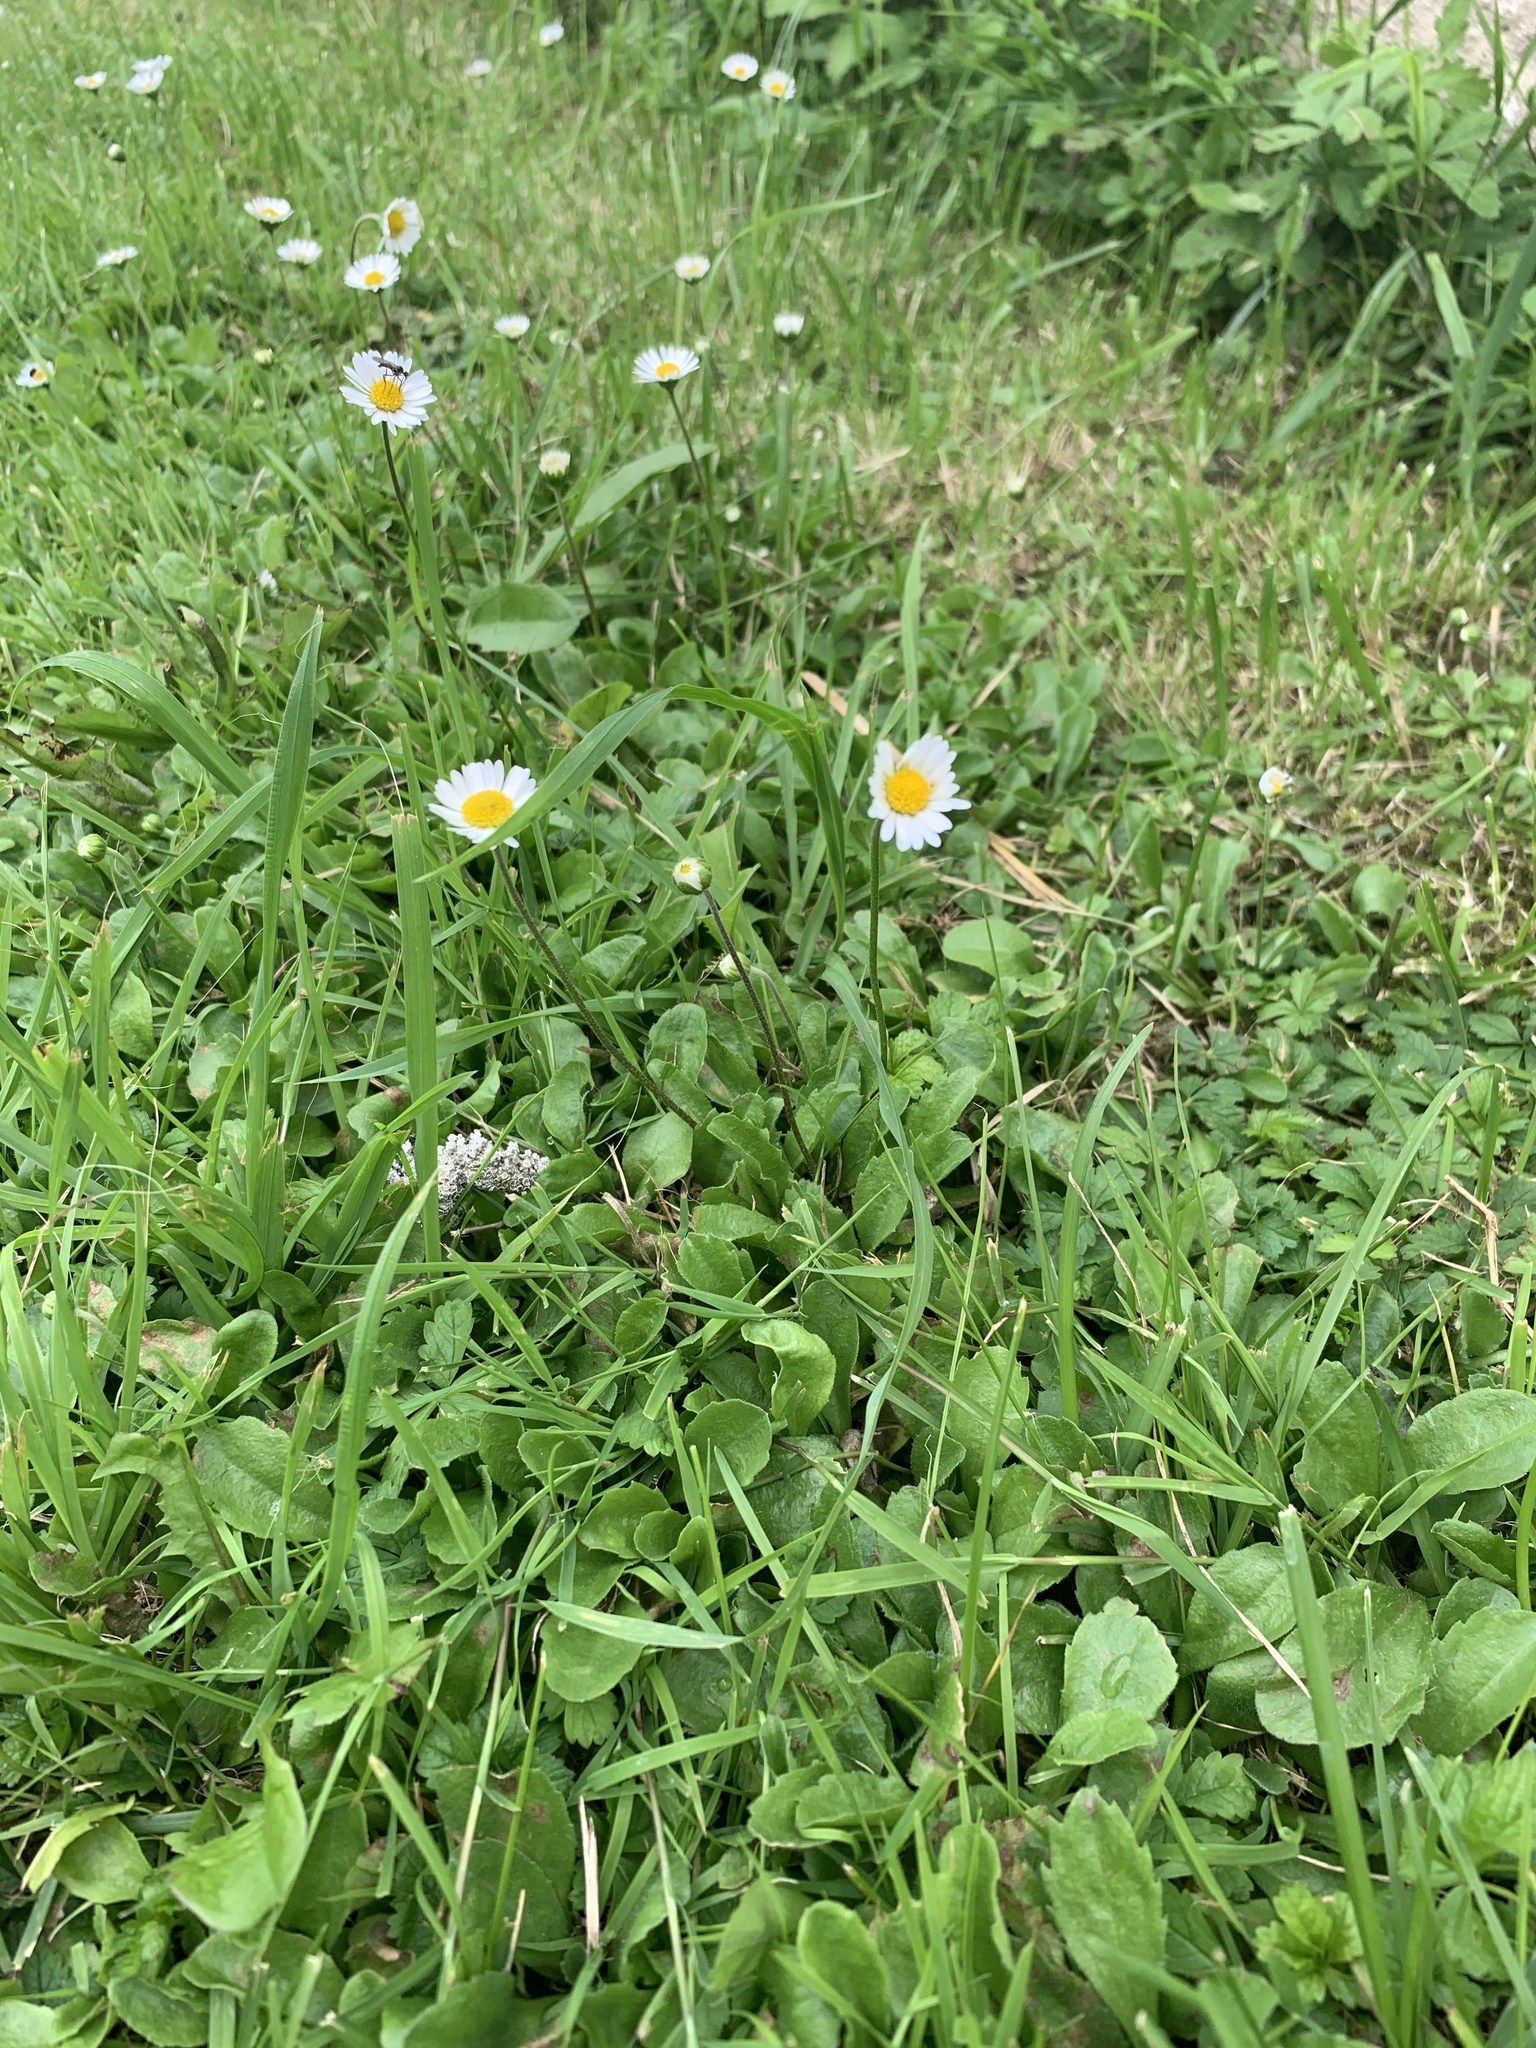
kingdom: Plantae
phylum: Tracheophyta
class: Magnoliopsida
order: Asterales
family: Asteraceae
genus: Bellis
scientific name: Bellis perennis
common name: Lawndaisy
